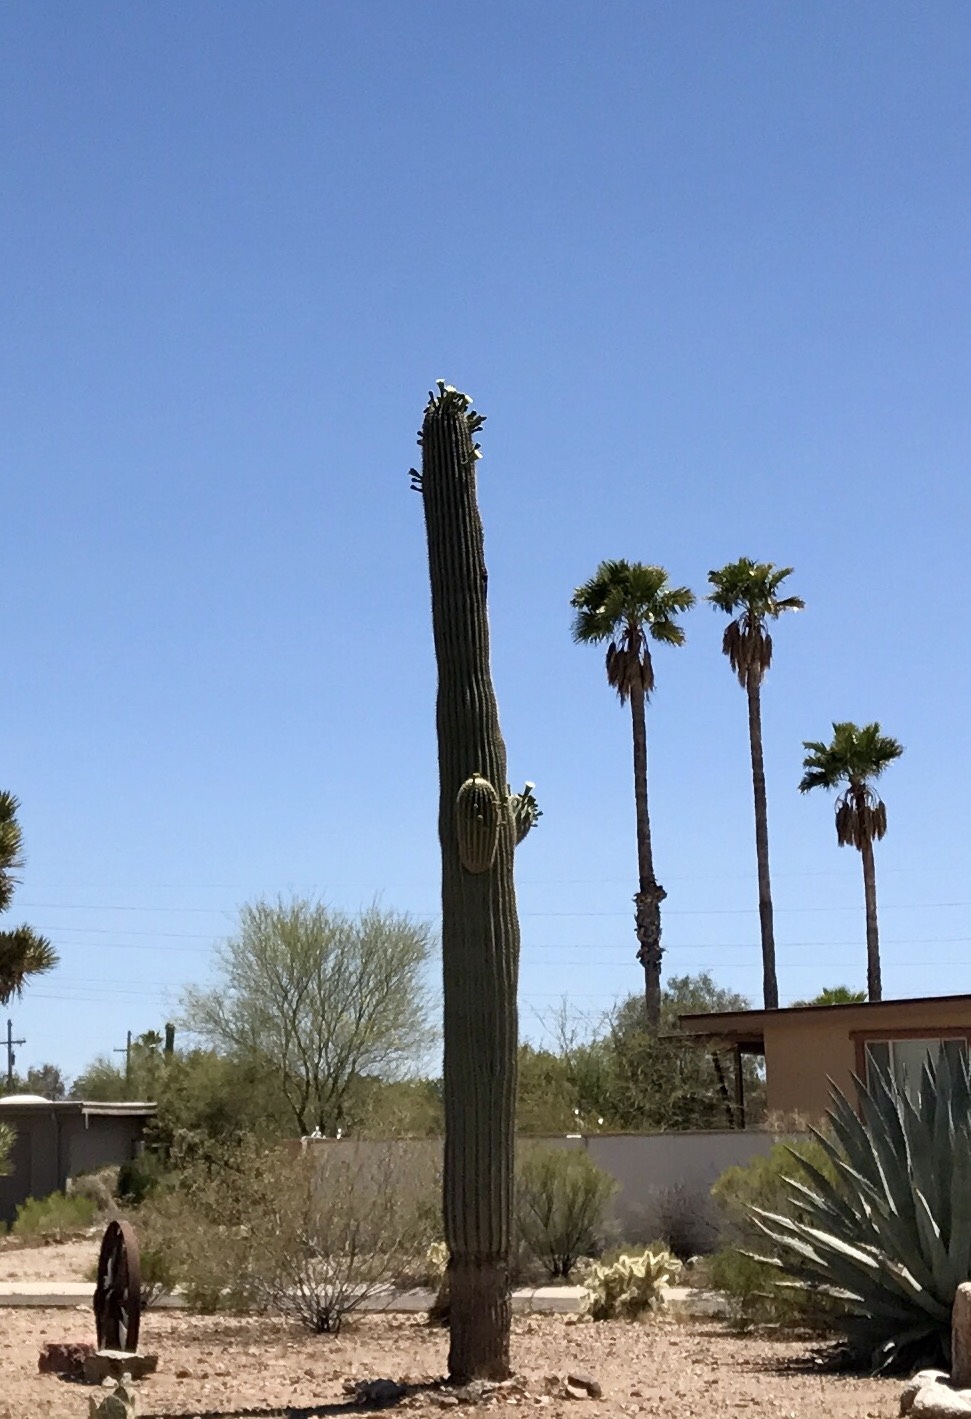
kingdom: Plantae
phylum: Tracheophyta
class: Magnoliopsida
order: Caryophyllales
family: Cactaceae
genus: Carnegiea
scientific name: Carnegiea gigantea
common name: Saguaro
